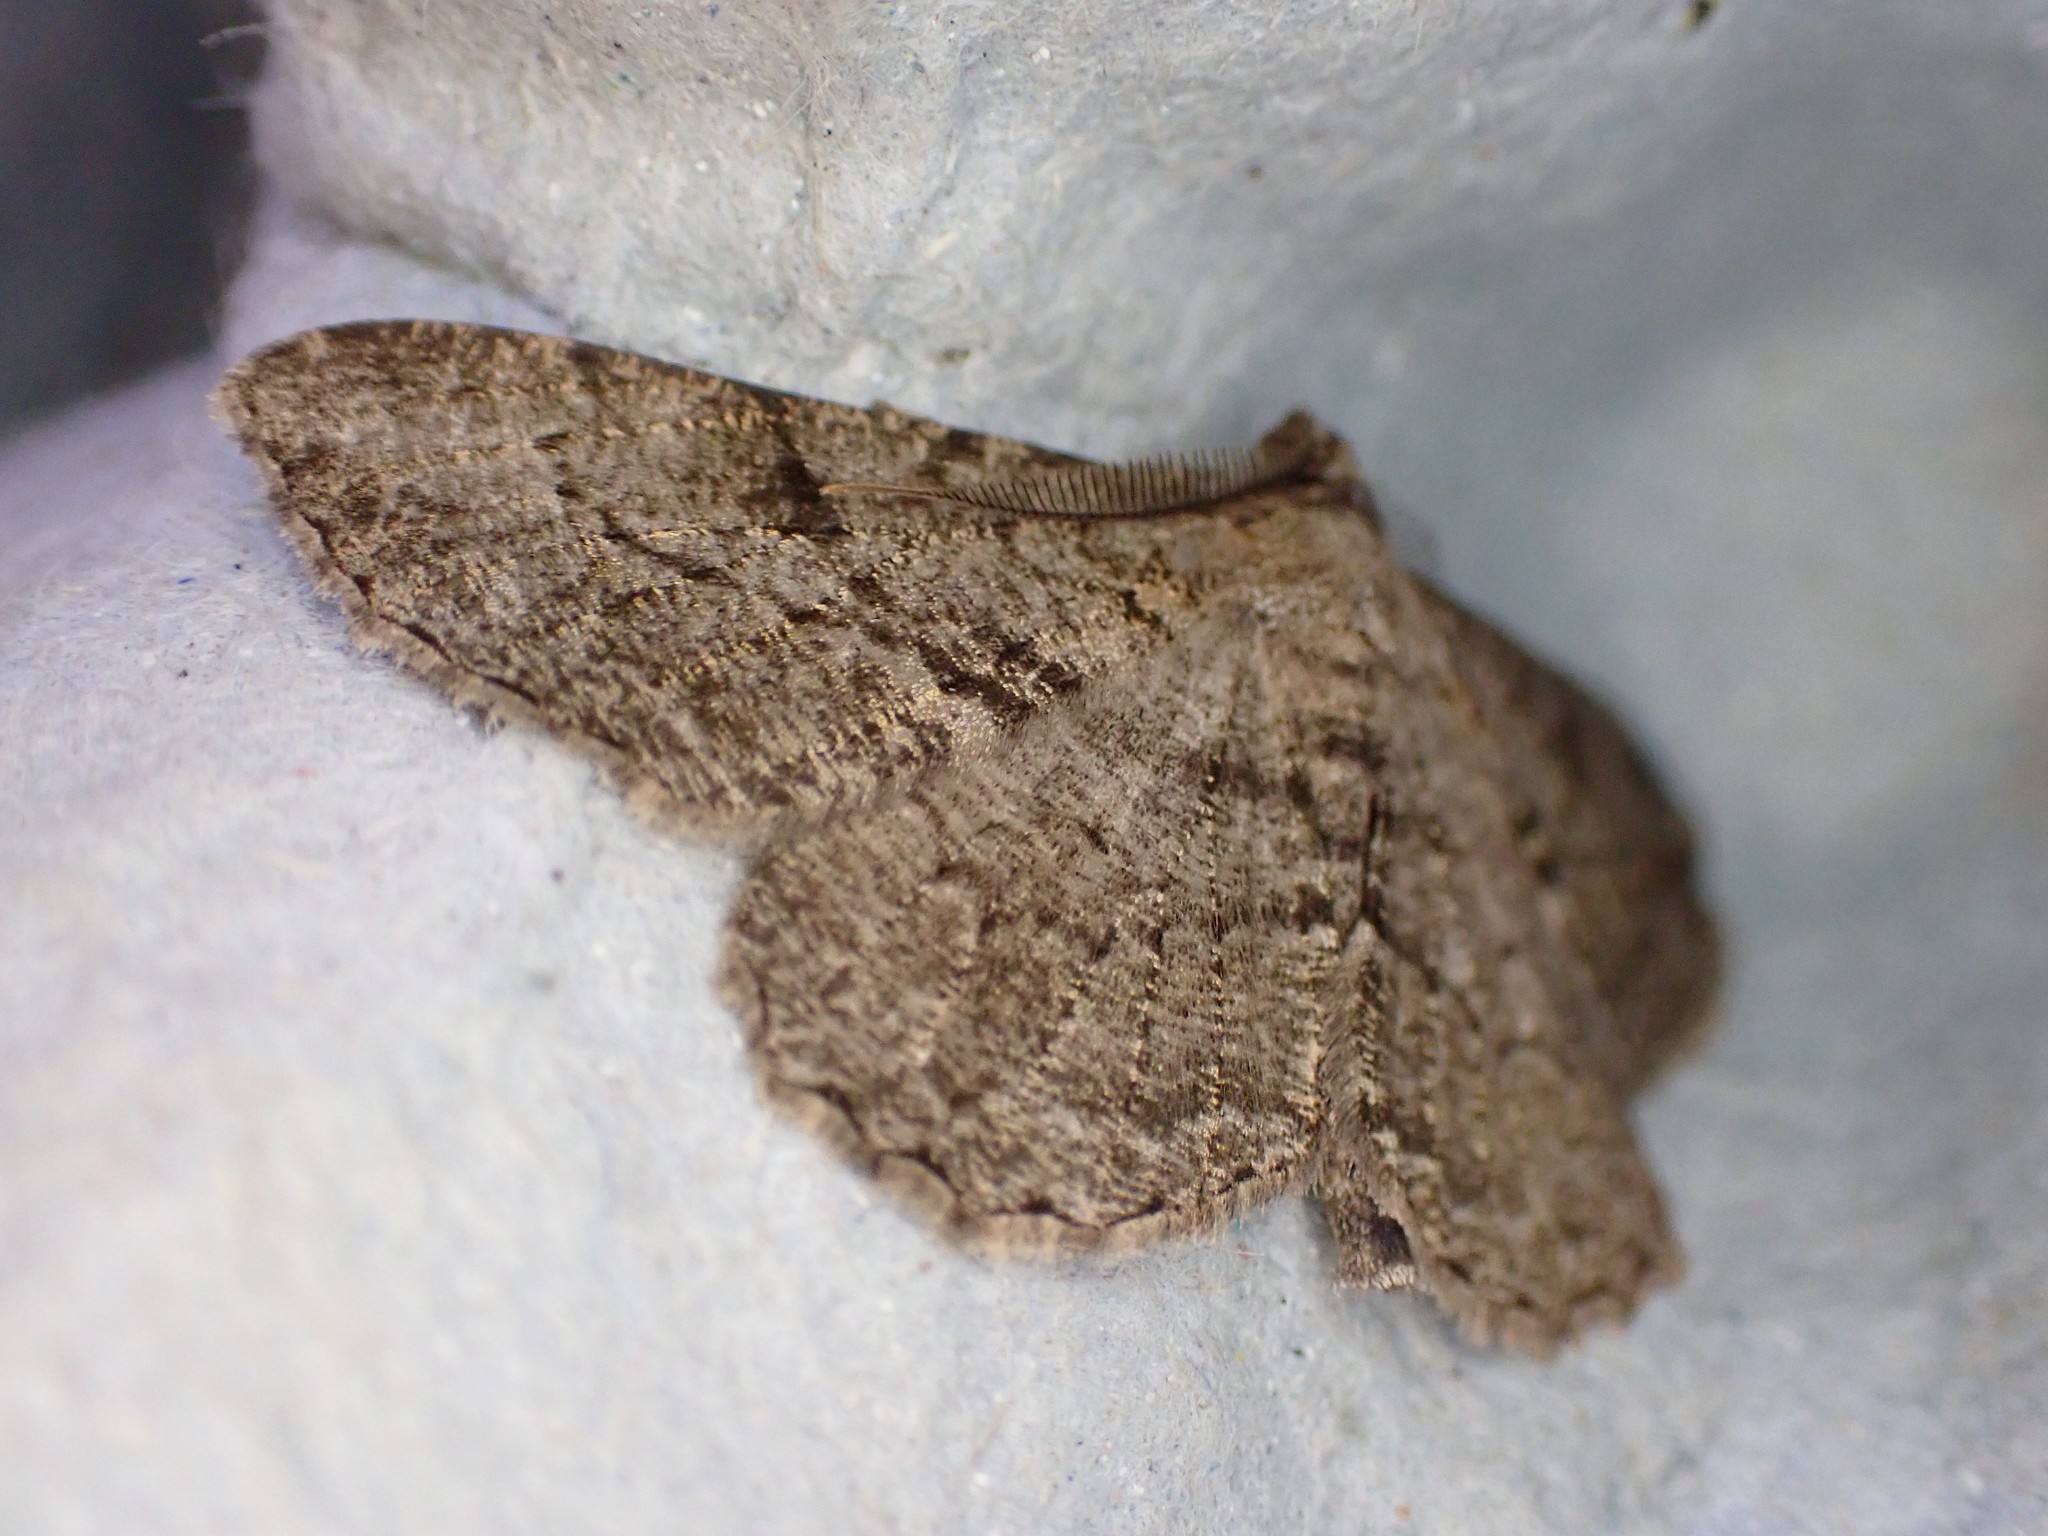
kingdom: Animalia
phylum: Arthropoda
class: Insecta
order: Lepidoptera
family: Geometridae
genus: Peribatodes
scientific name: Peribatodes rhomboidaria
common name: Willow beauty
